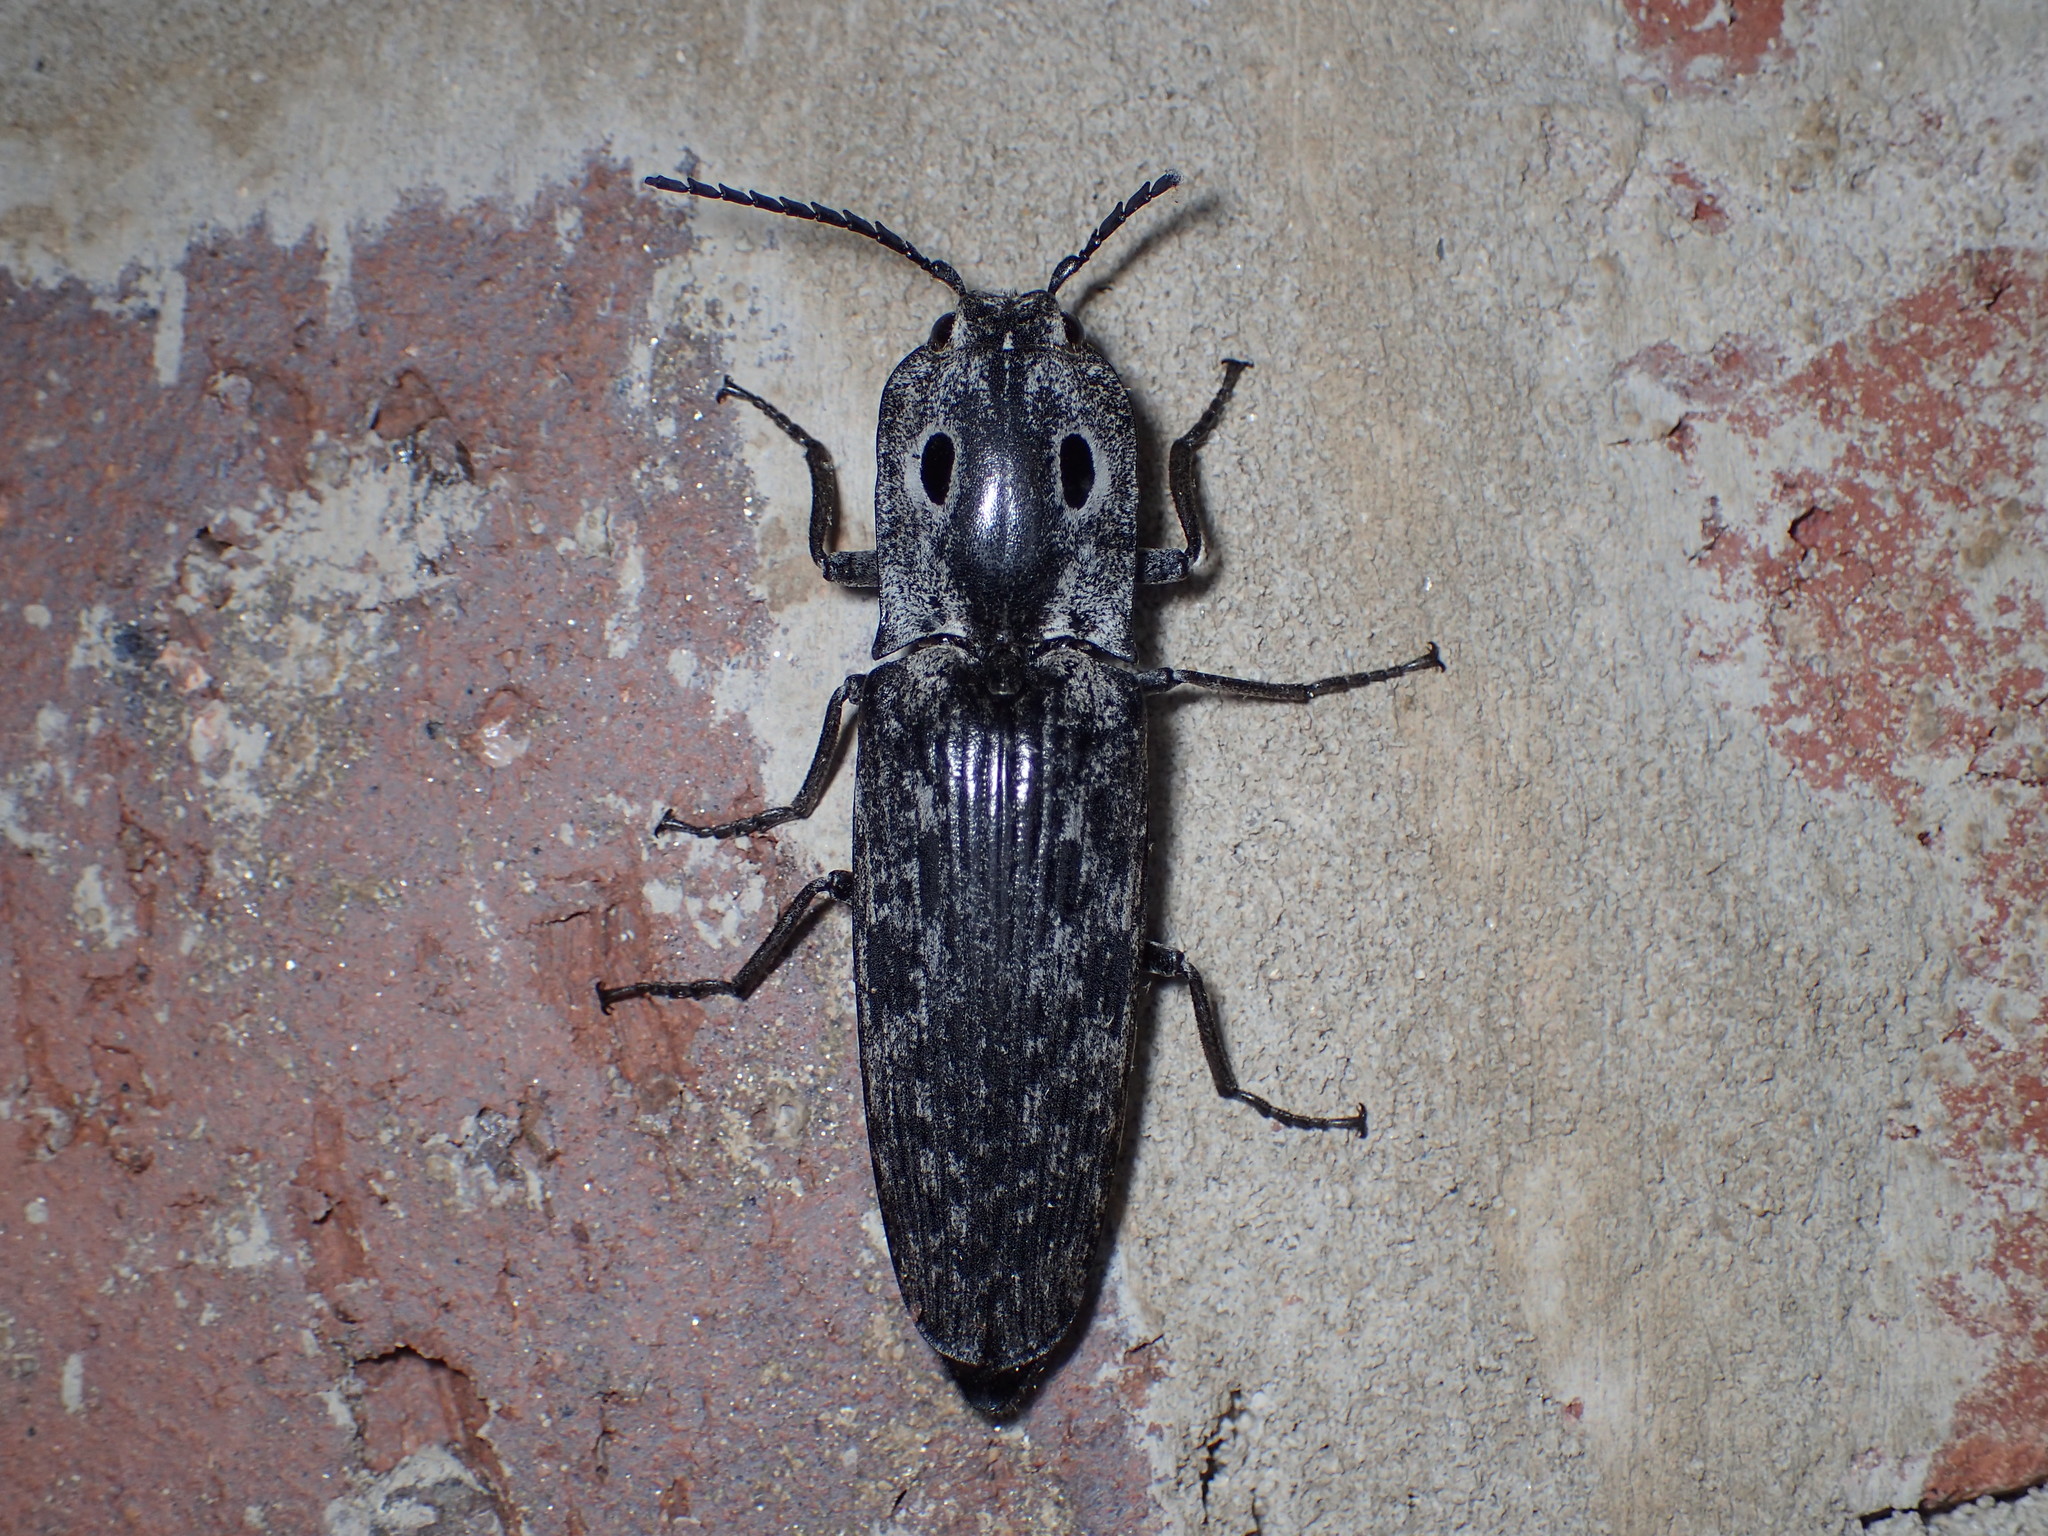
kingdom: Animalia
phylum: Arthropoda
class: Insecta
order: Coleoptera
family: Elateridae
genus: Alaus
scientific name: Alaus myops
